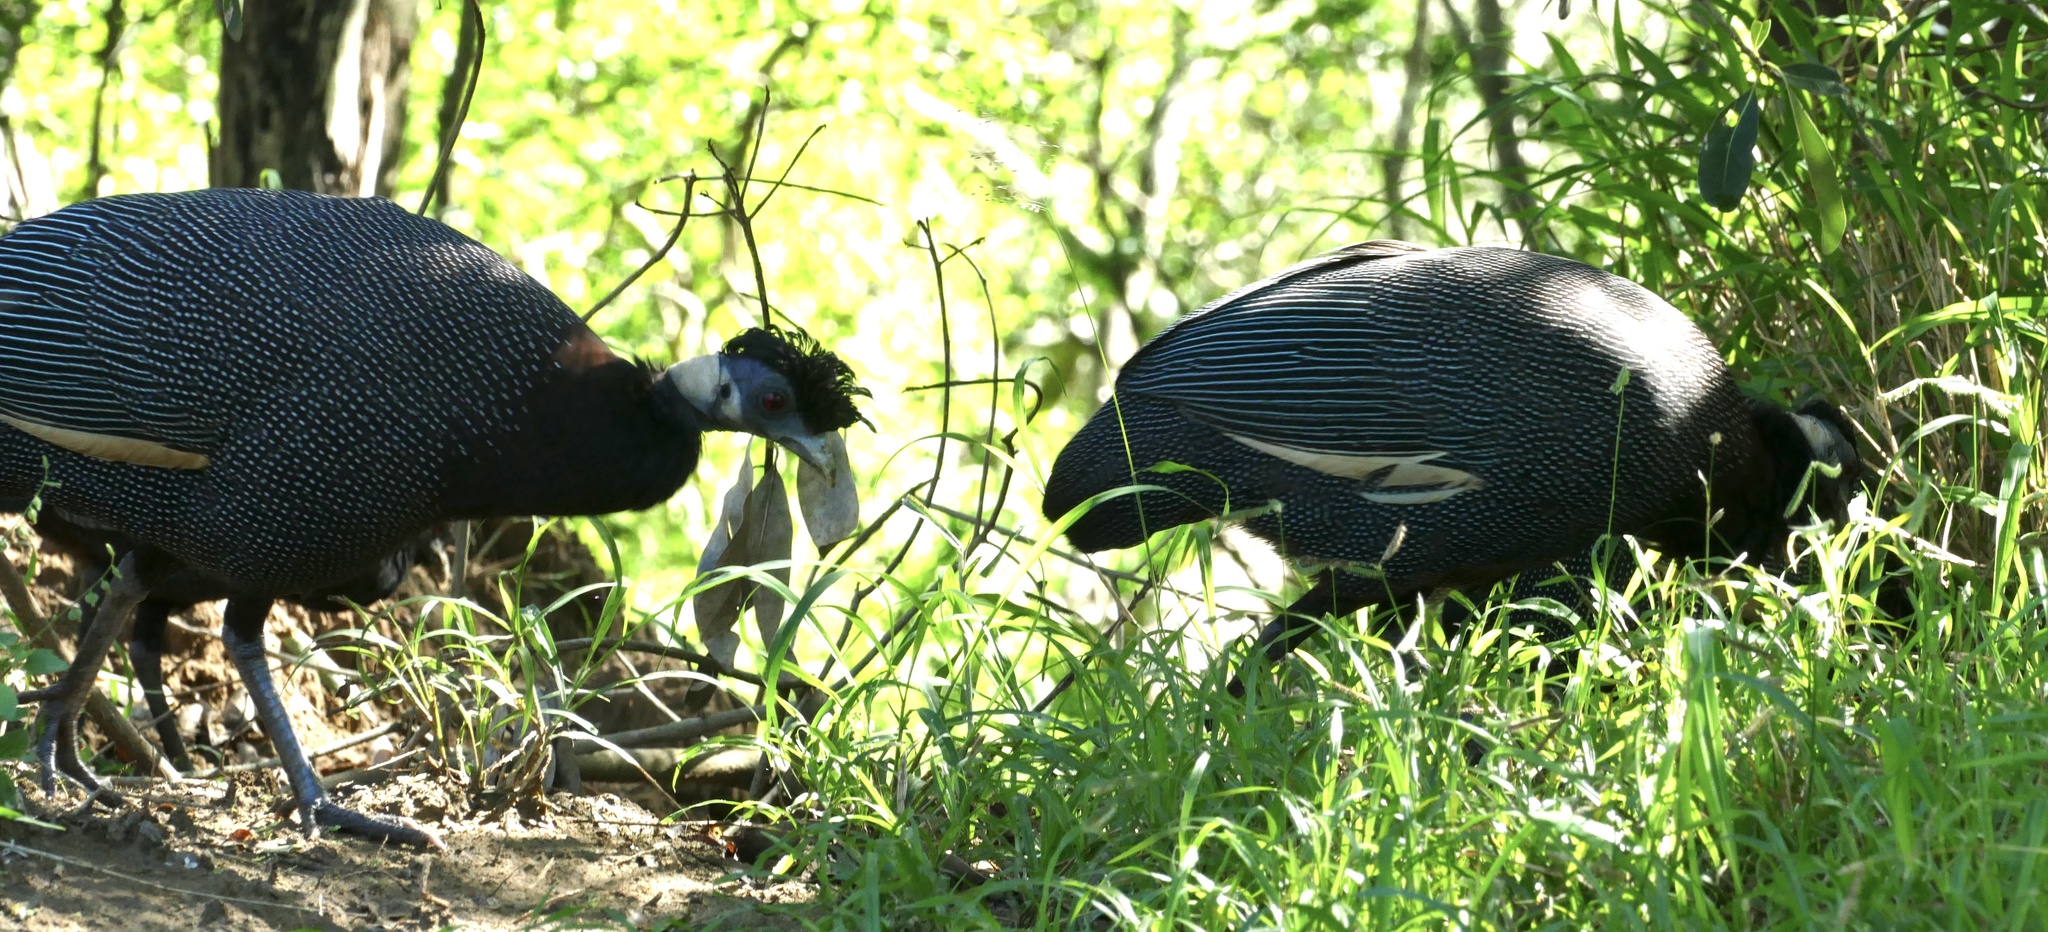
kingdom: Animalia
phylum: Chordata
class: Aves
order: Galliformes
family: Numididae
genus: Guttera
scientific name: Guttera pucherani
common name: Crested guineafowl
